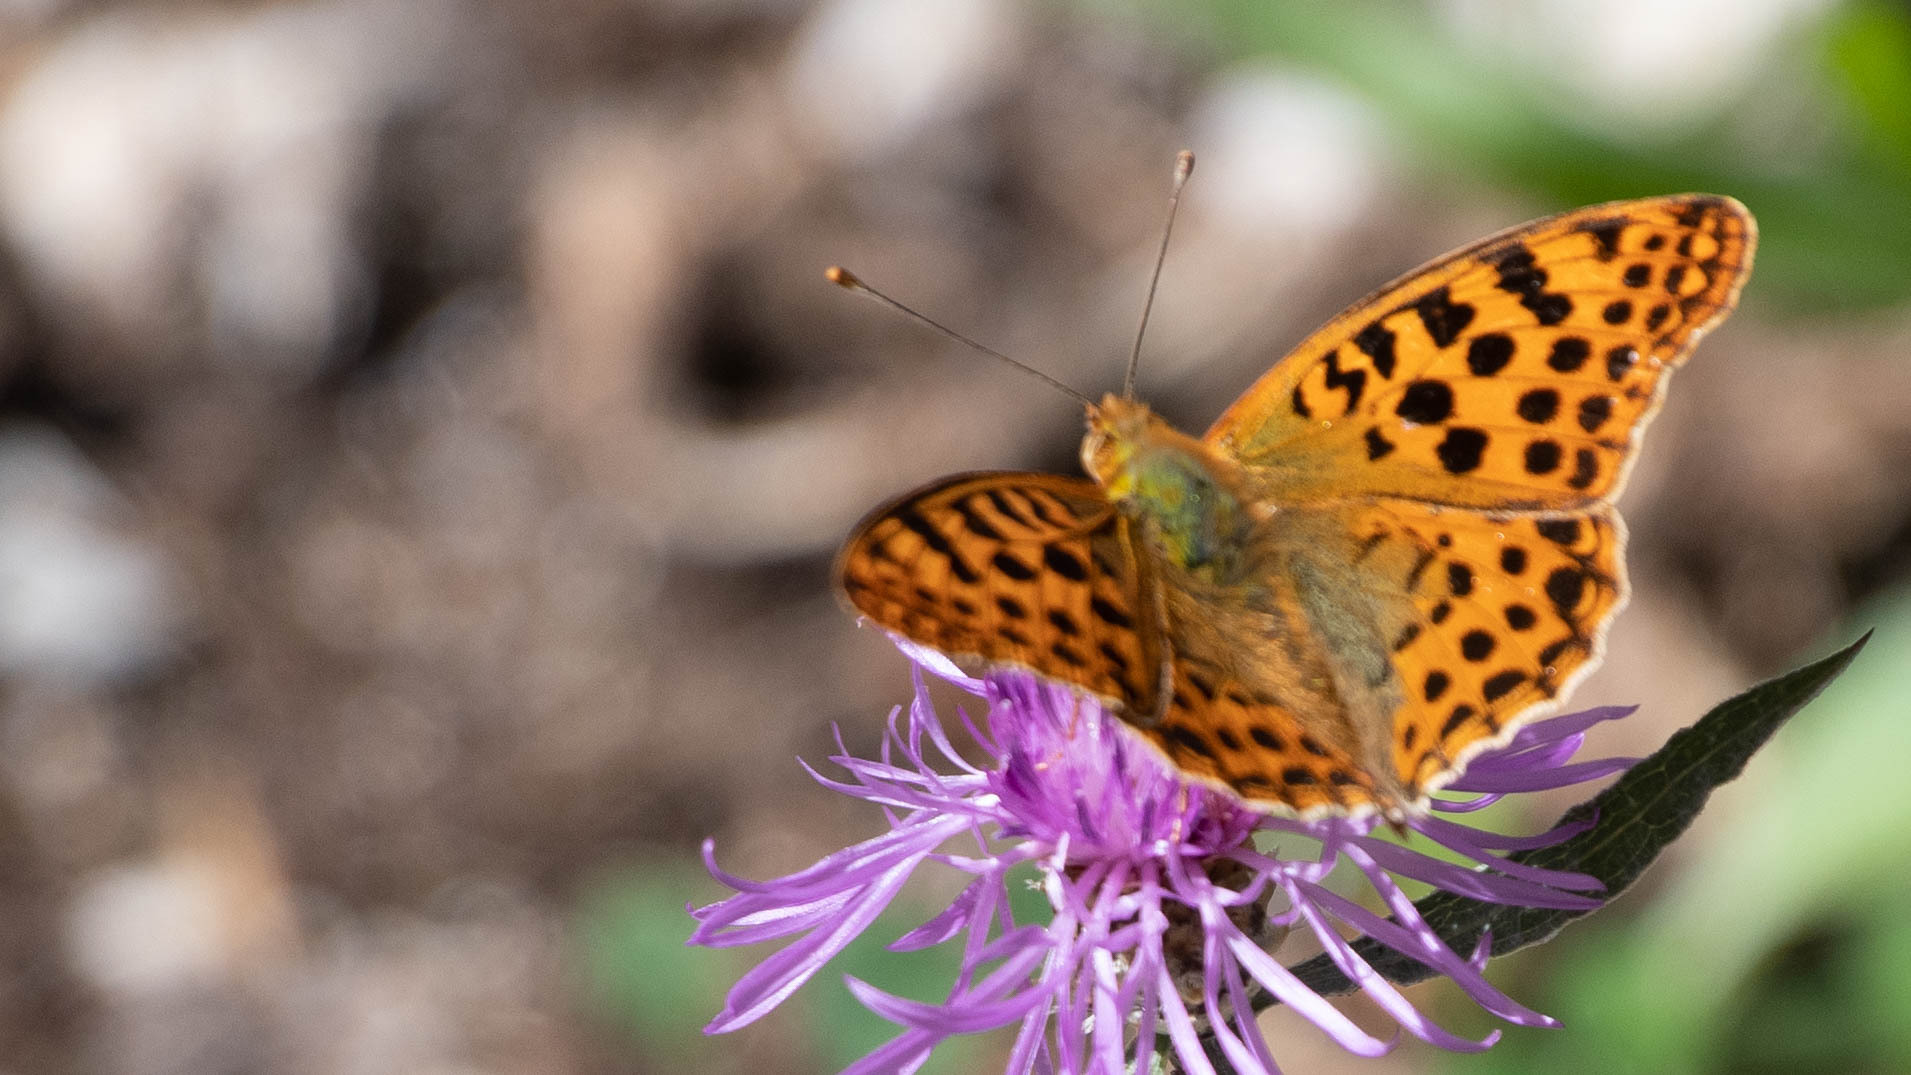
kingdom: Animalia
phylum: Arthropoda
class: Insecta
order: Lepidoptera
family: Nymphalidae
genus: Issoria
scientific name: Issoria lathonia
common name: Queen of spain fritillary
